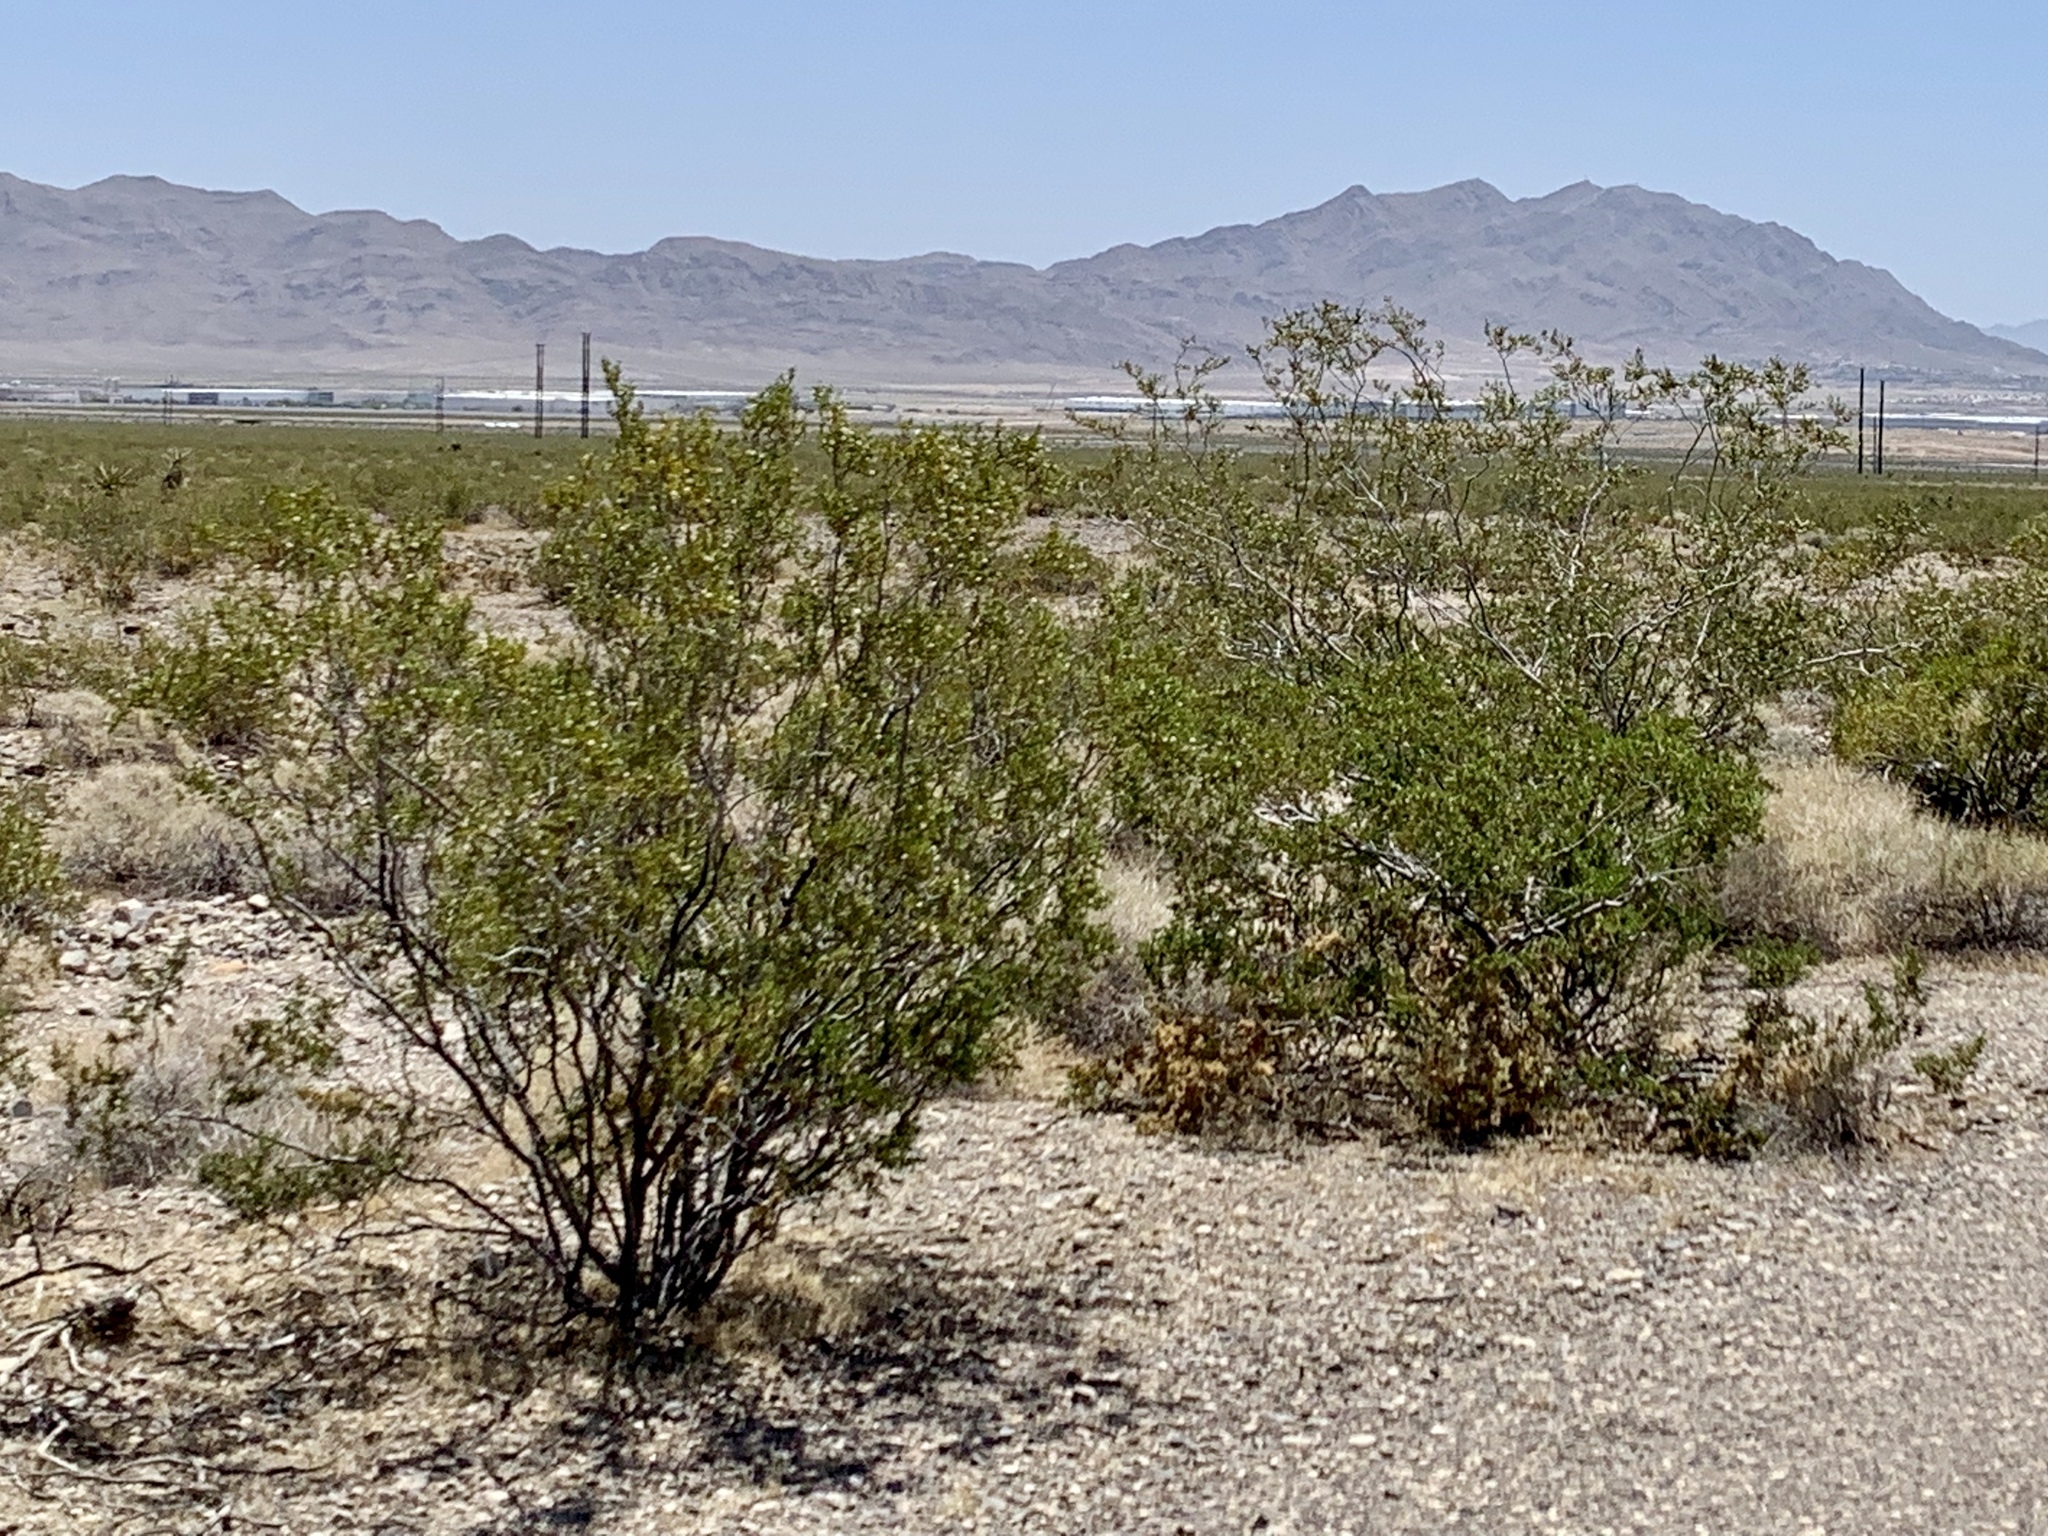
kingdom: Plantae
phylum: Tracheophyta
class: Magnoliopsida
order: Zygophyllales
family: Zygophyllaceae
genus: Larrea
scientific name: Larrea tridentata
